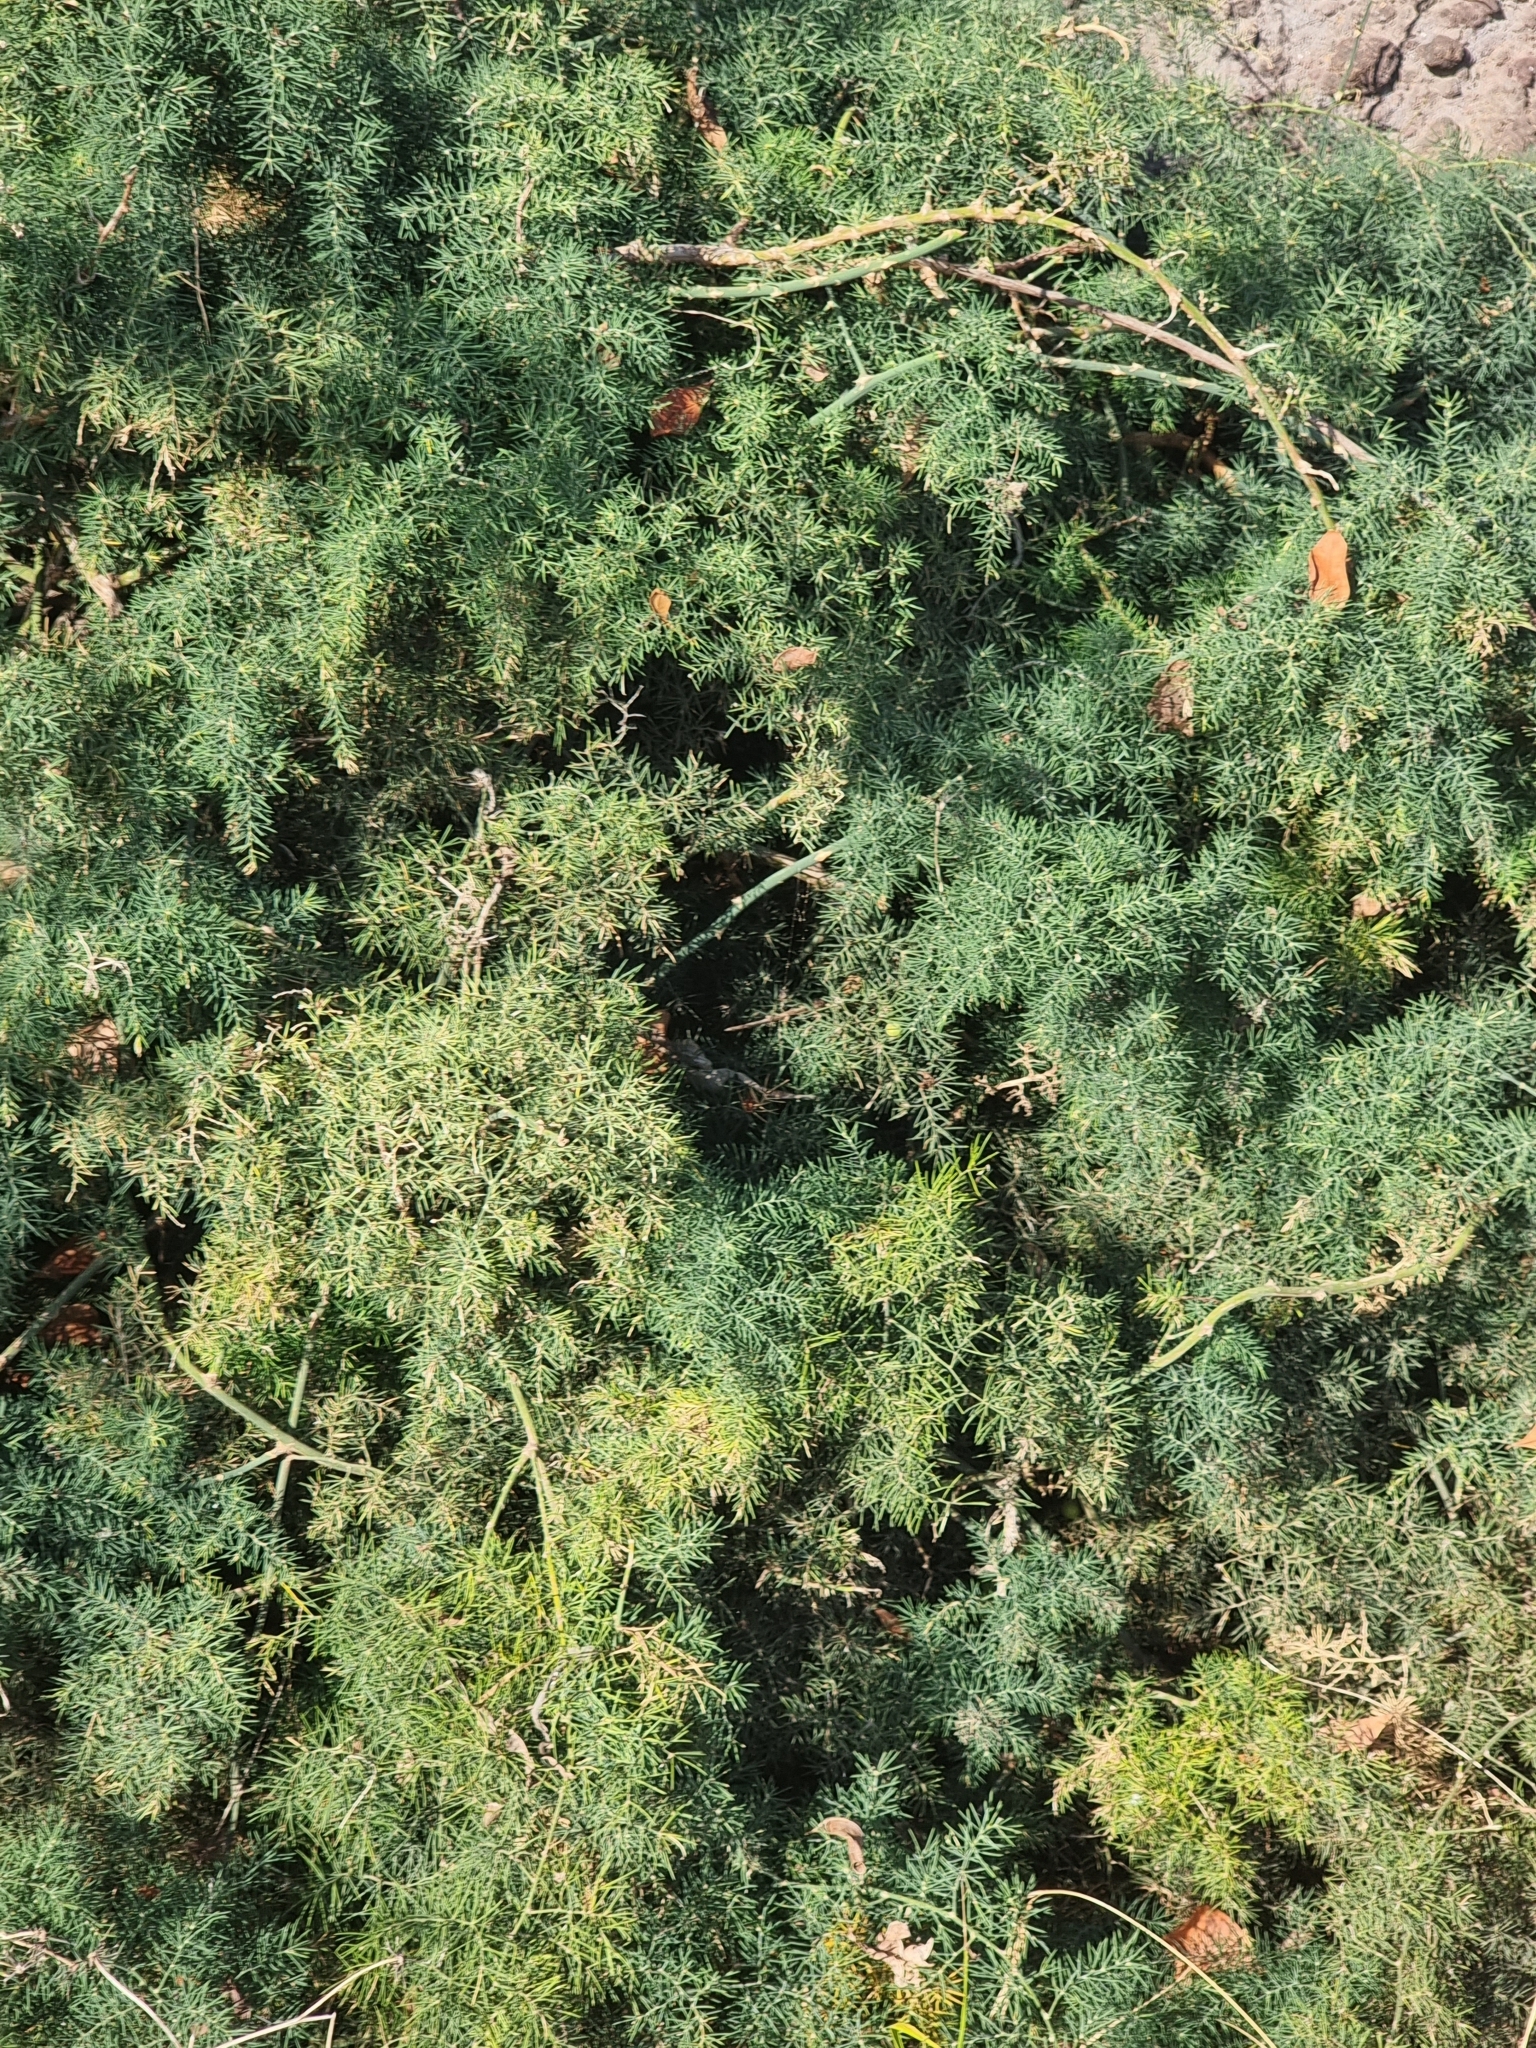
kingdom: Plantae
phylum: Tracheophyta
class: Liliopsida
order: Asparagales
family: Asparagaceae
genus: Asparagus
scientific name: Asparagus umbellatus
